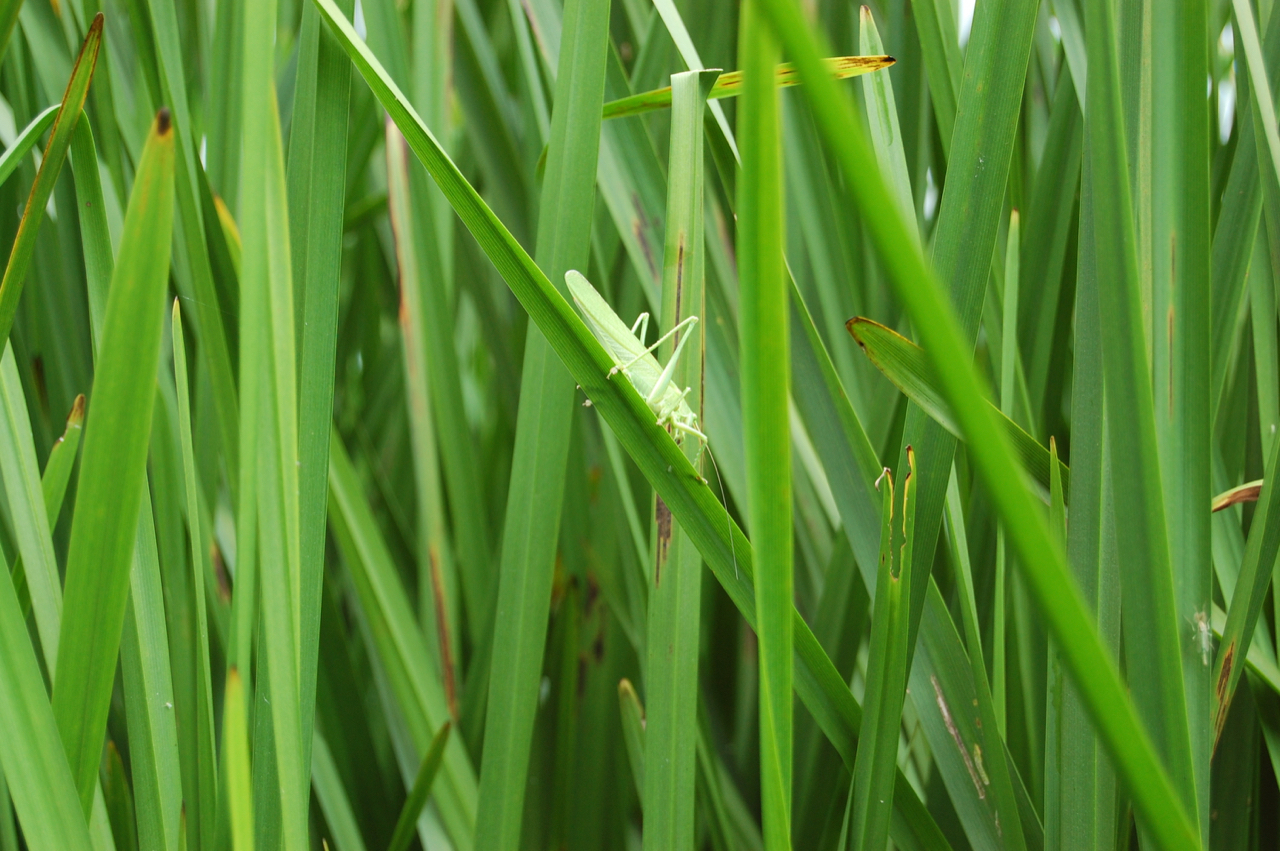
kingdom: Animalia
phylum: Arthropoda
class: Insecta
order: Orthoptera
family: Tettigoniidae
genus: Tettigonia
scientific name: Tettigonia viridissima
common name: Great green bush-cricket
